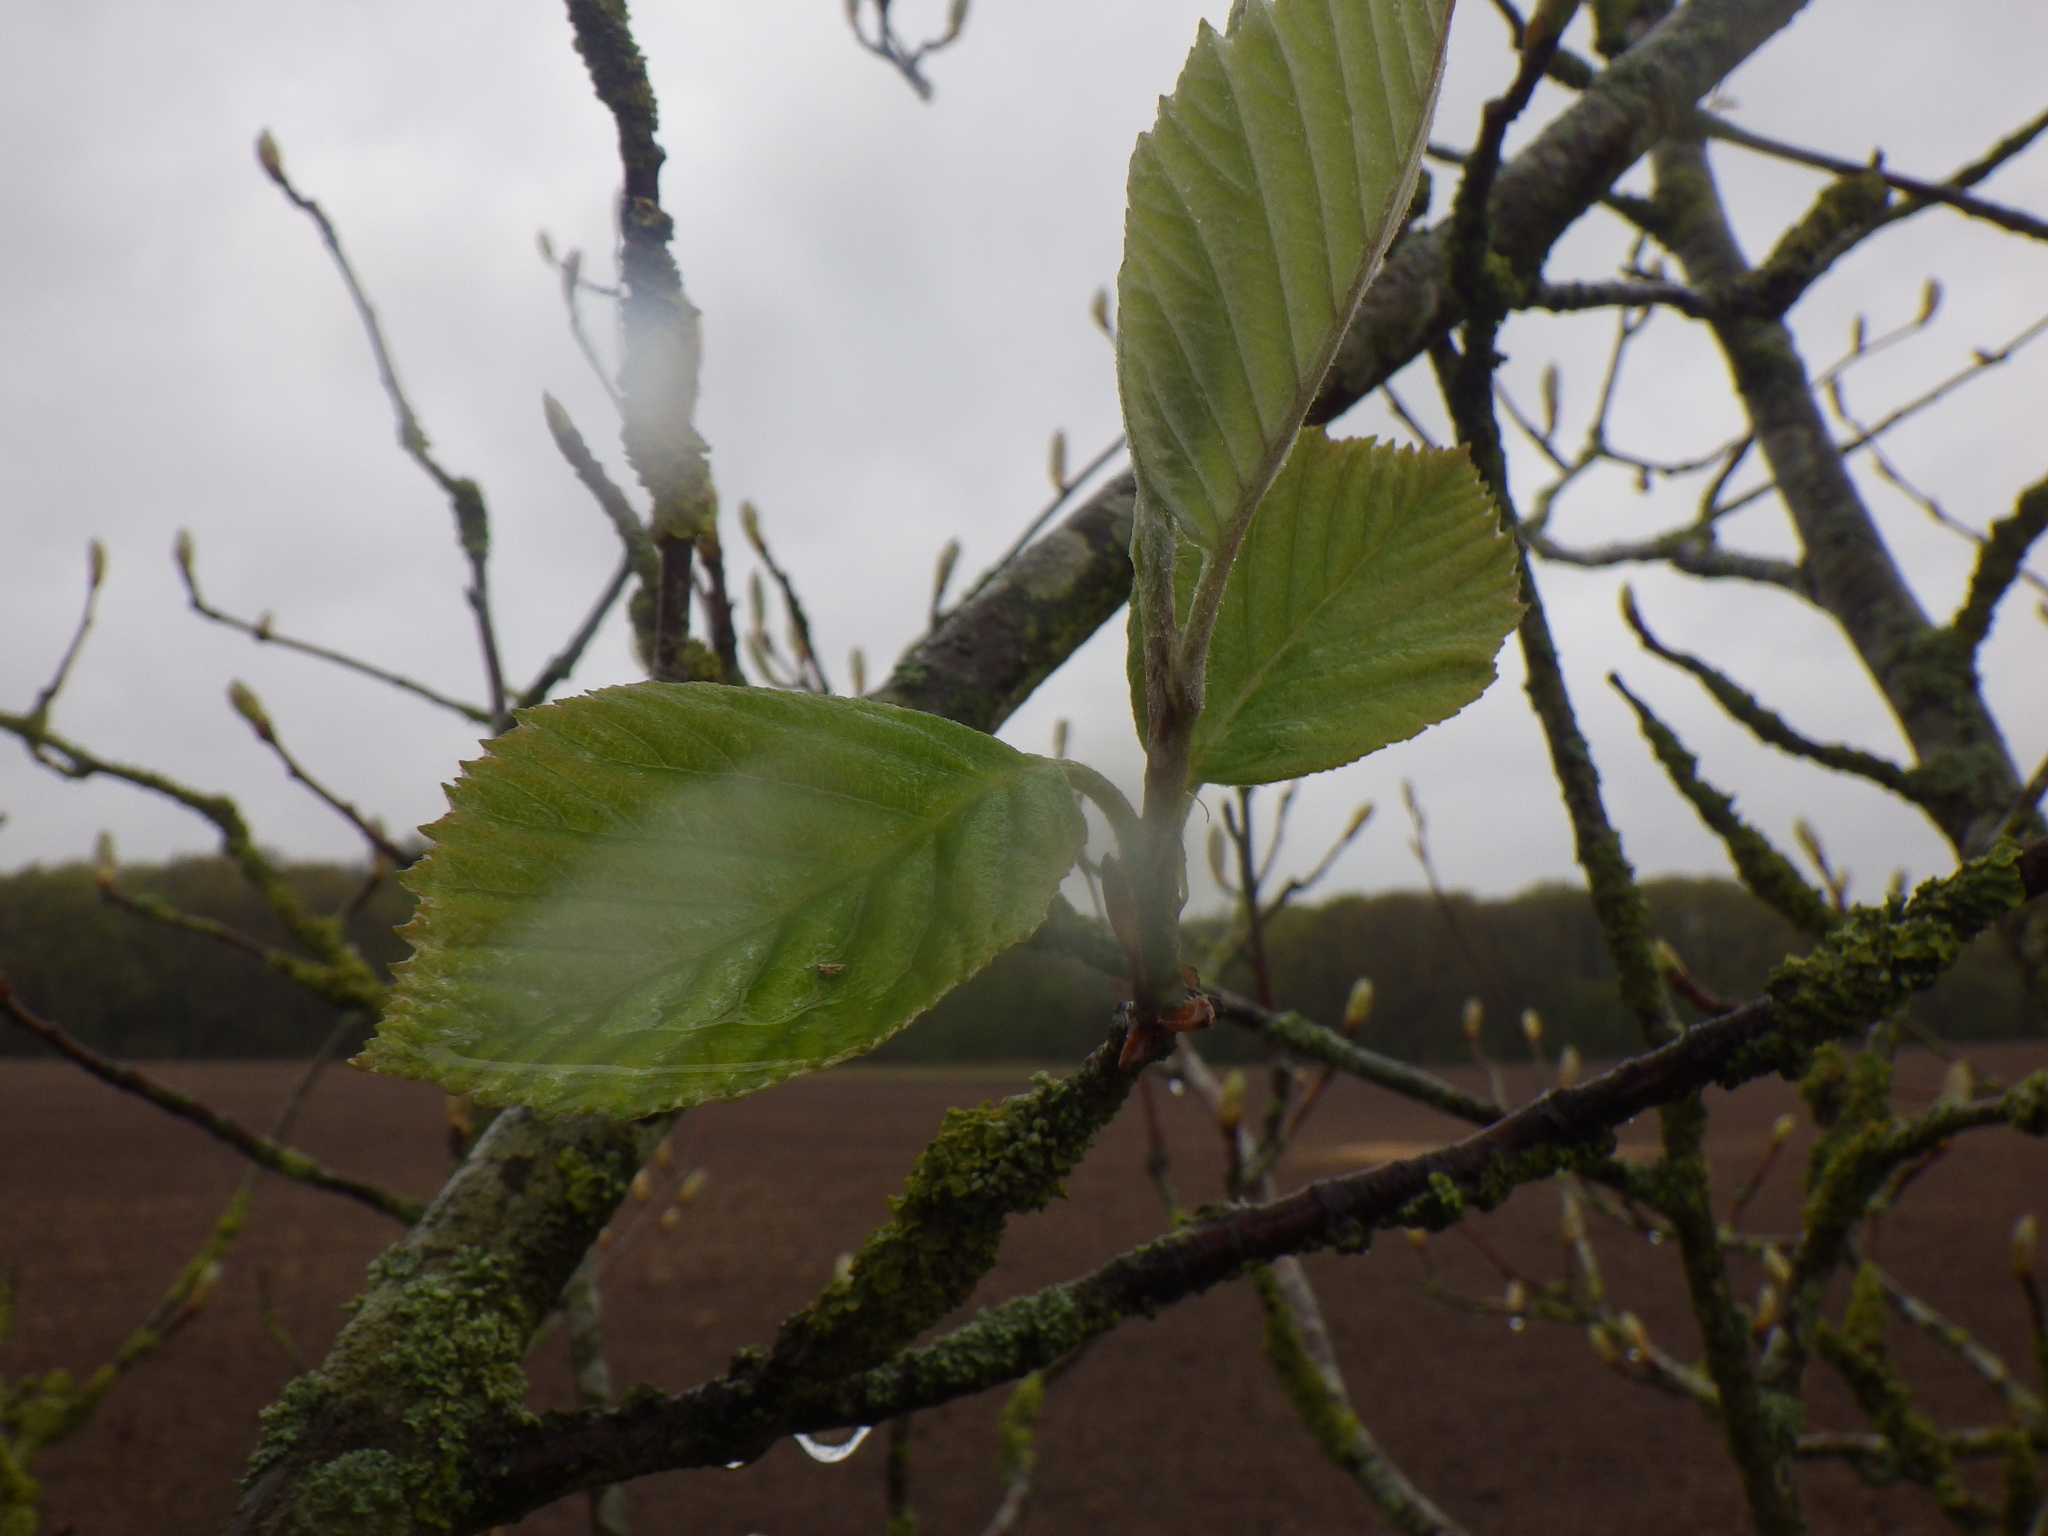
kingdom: Plantae
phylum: Tracheophyta
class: Magnoliopsida
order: Rosales
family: Rosaceae
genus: Aria
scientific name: Aria edulis
